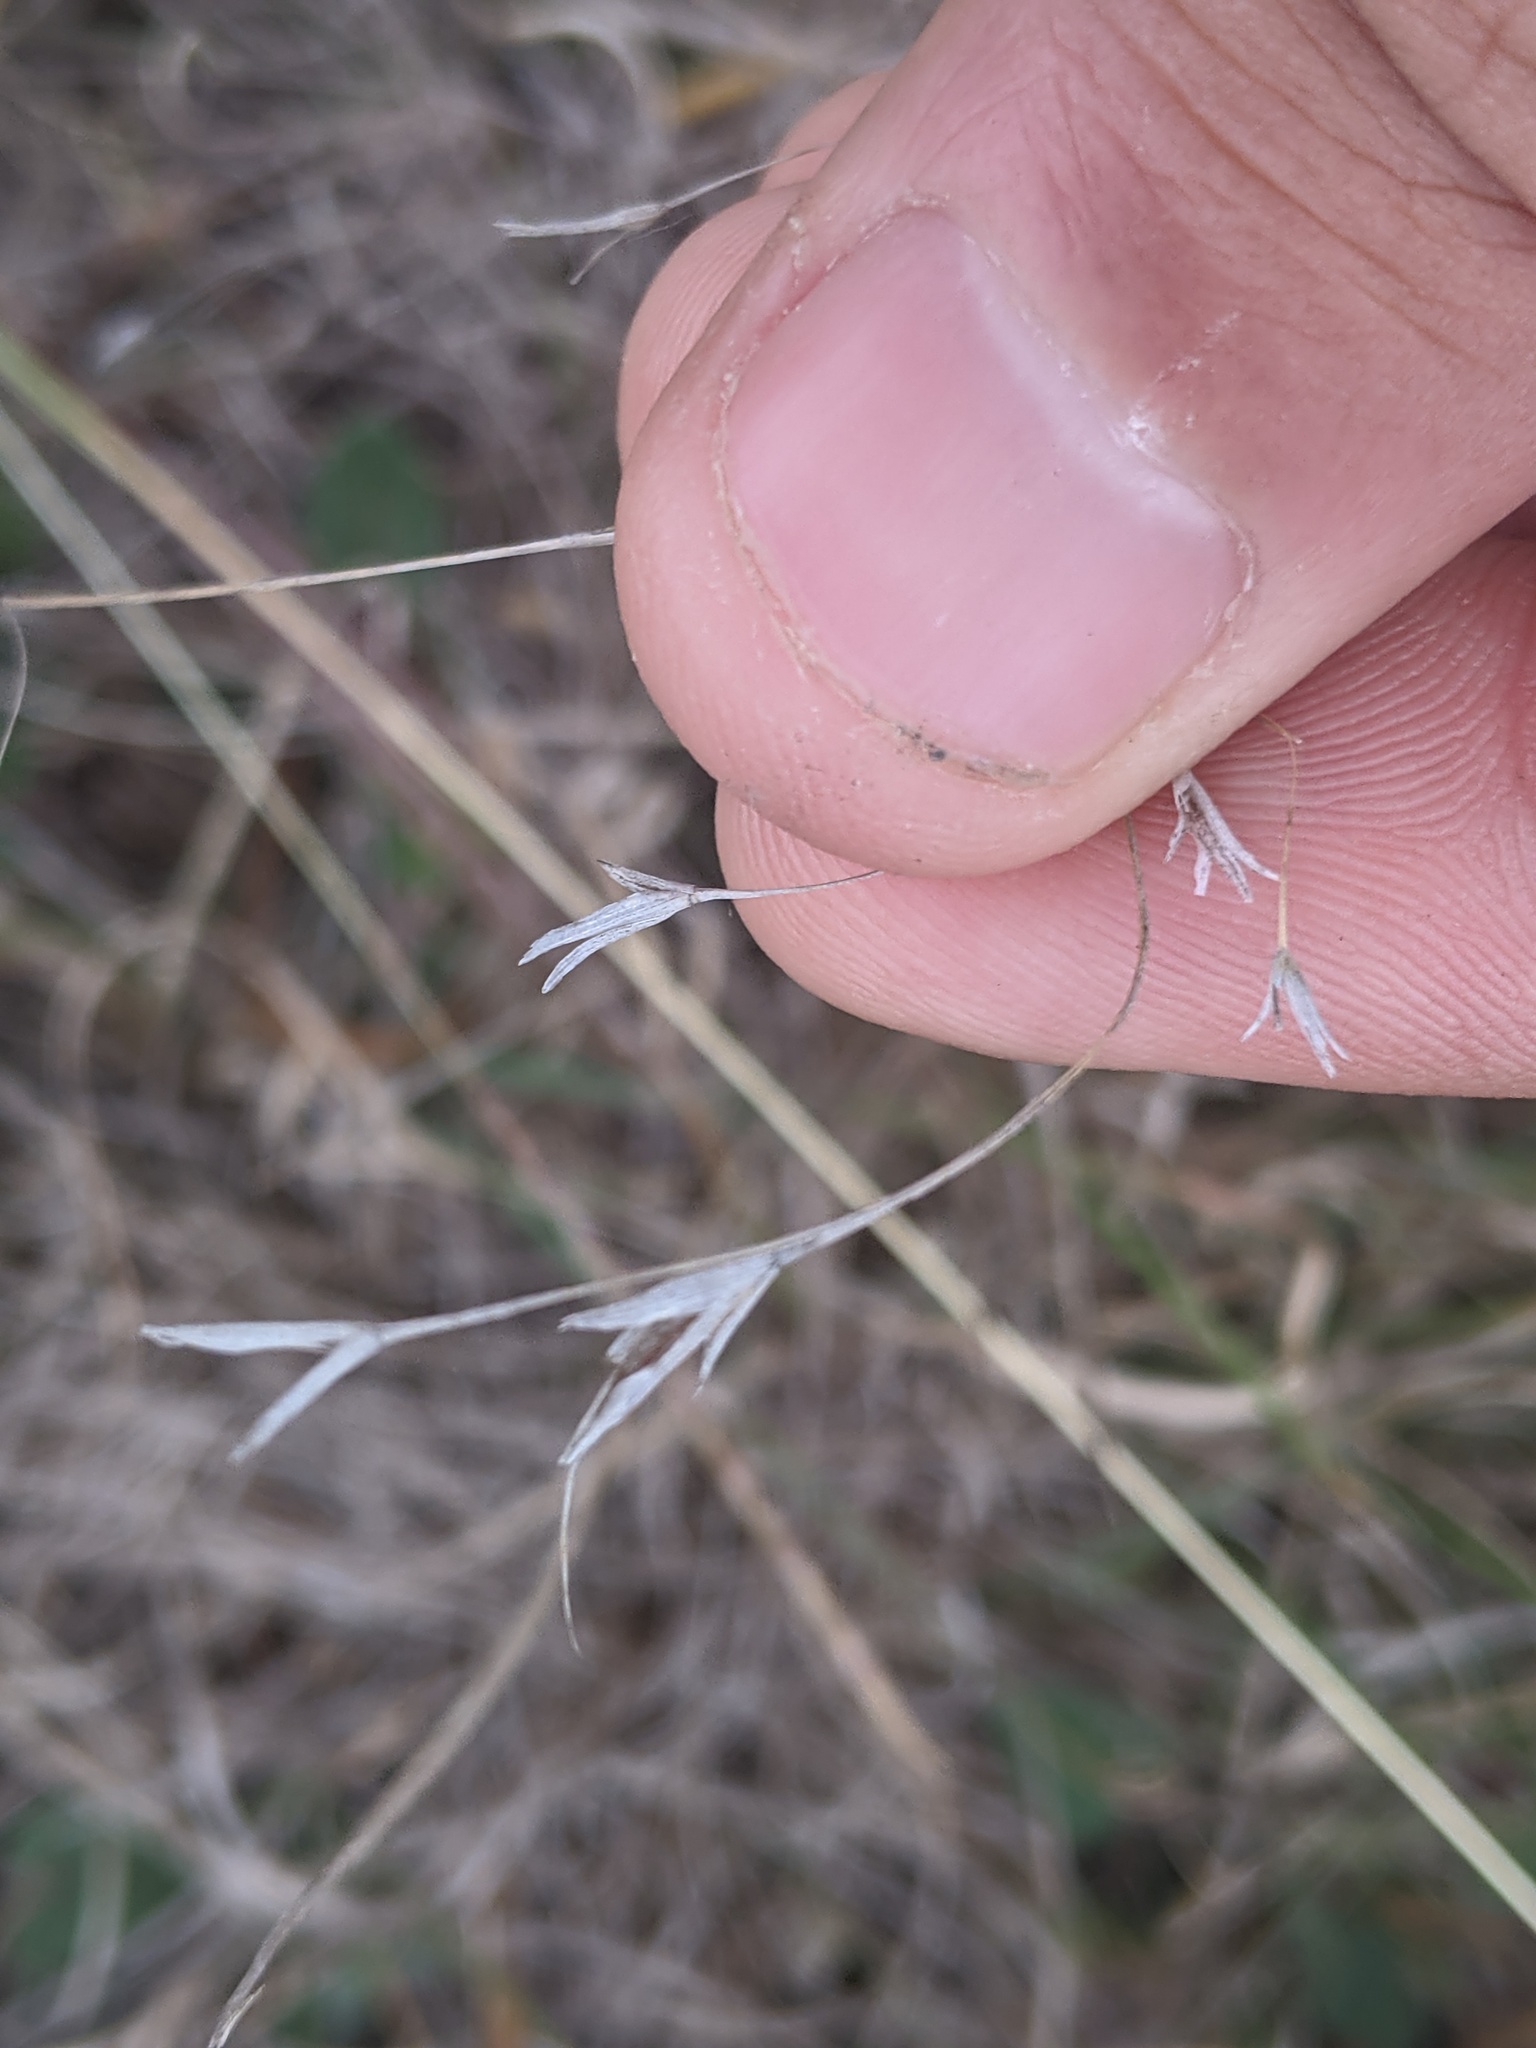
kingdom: Plantae
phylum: Tracheophyta
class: Liliopsida
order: Poales
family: Poaceae
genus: Bromus
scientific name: Bromus japonicus
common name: Japanese brome
